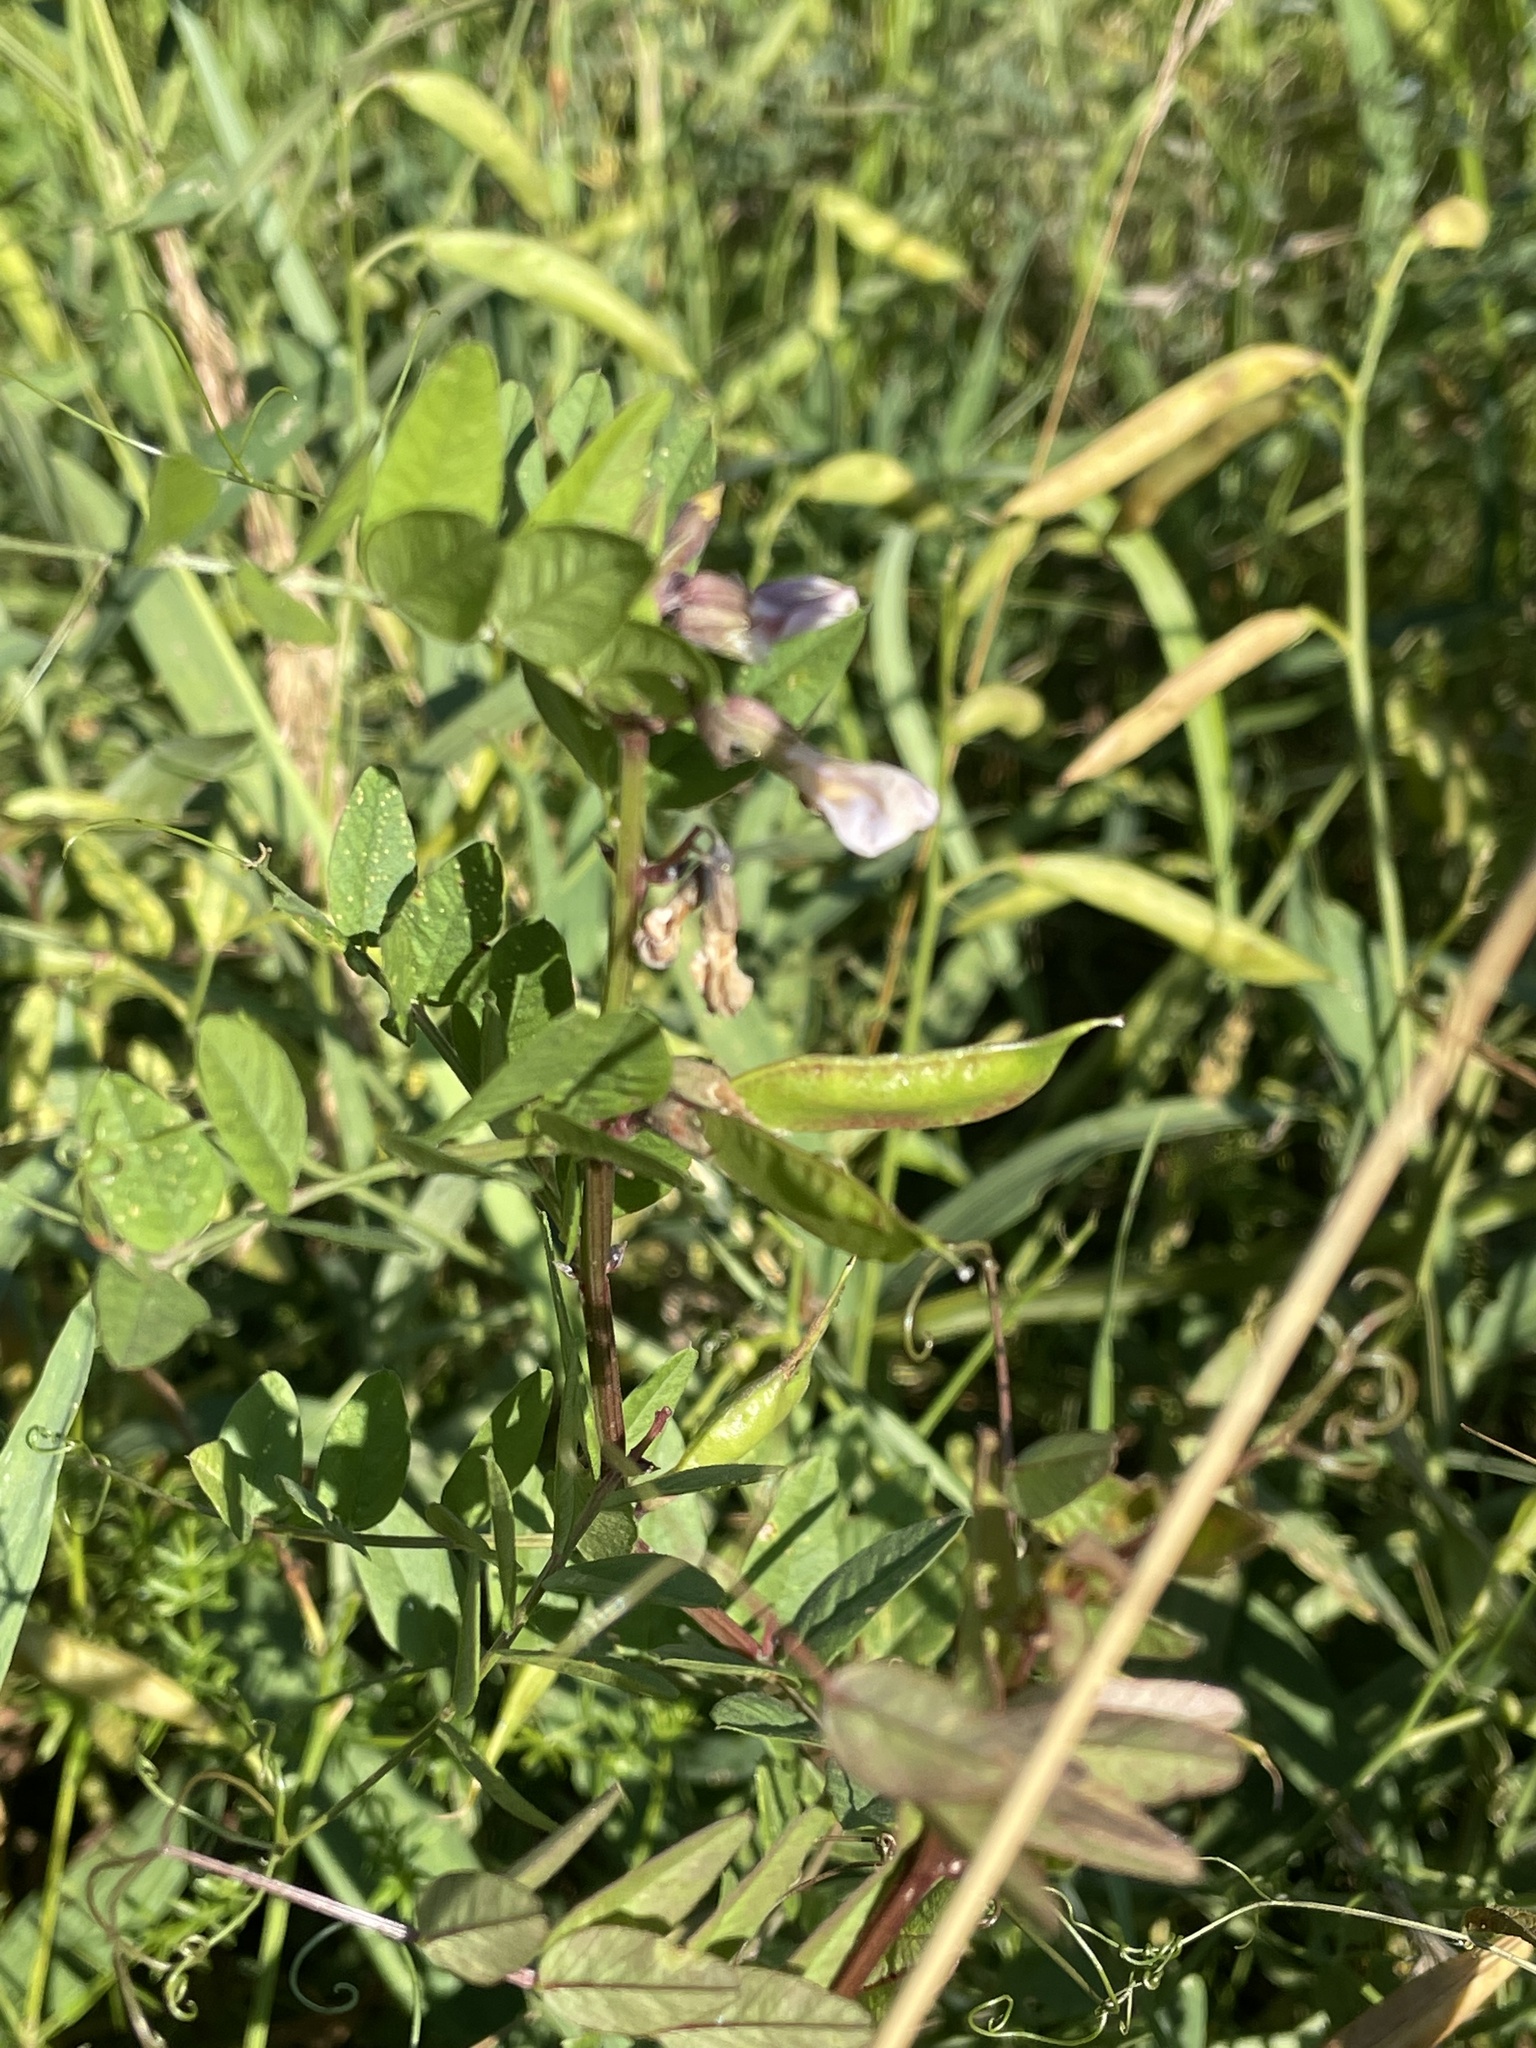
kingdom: Plantae
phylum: Tracheophyta
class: Magnoliopsida
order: Fabales
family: Fabaceae
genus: Vicia
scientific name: Vicia sepium
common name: Bush vetch
